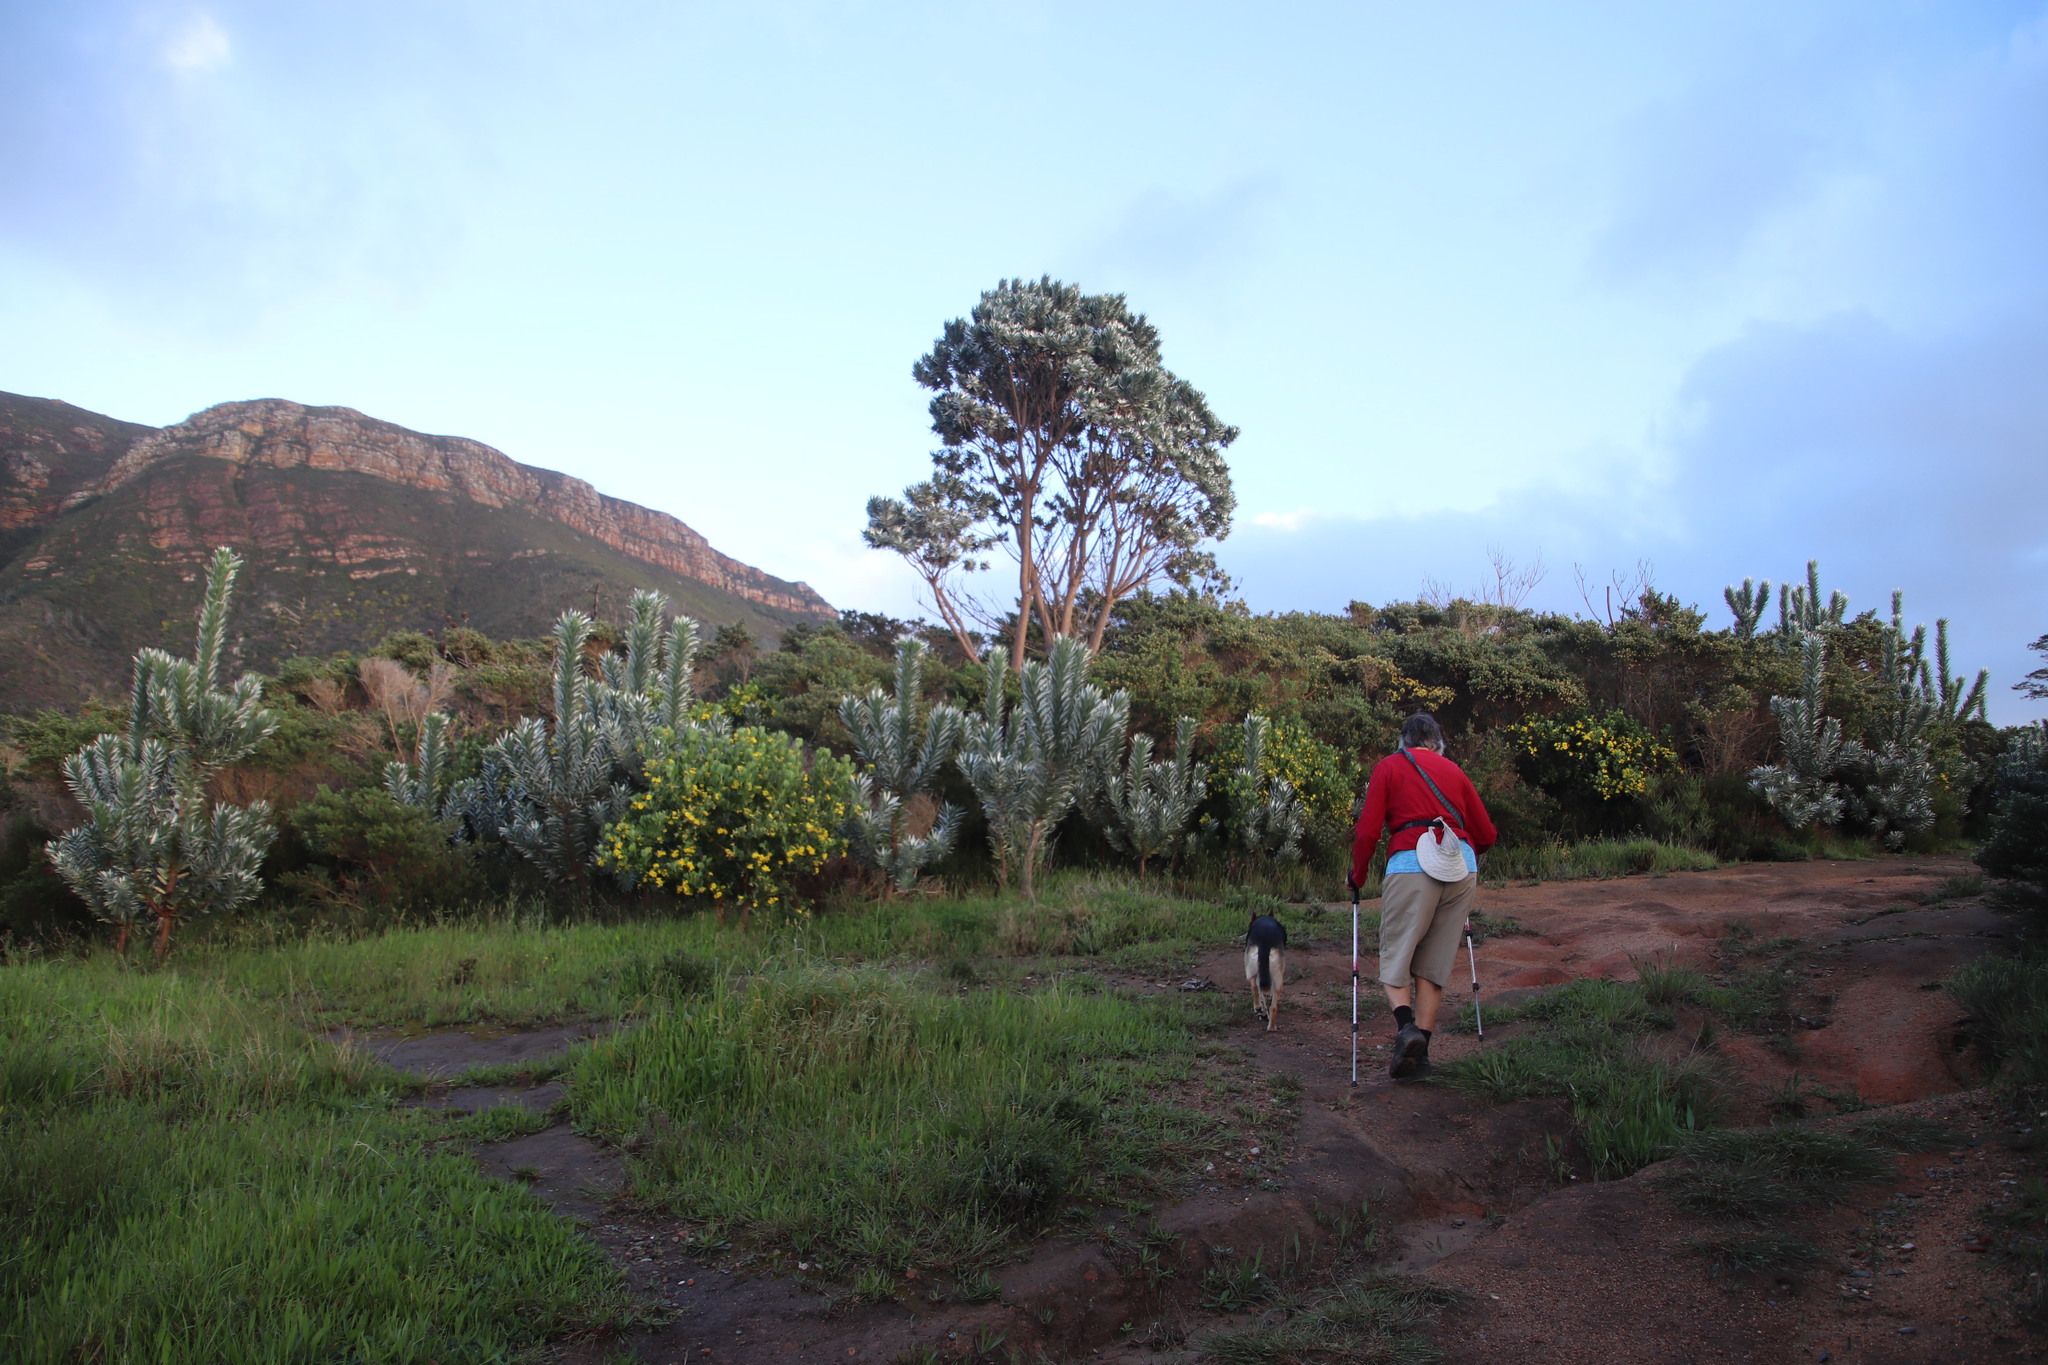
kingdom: Plantae
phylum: Tracheophyta
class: Magnoliopsida
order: Proteales
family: Proteaceae
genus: Leucadendron
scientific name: Leucadendron argenteum
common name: Cape silver tree
